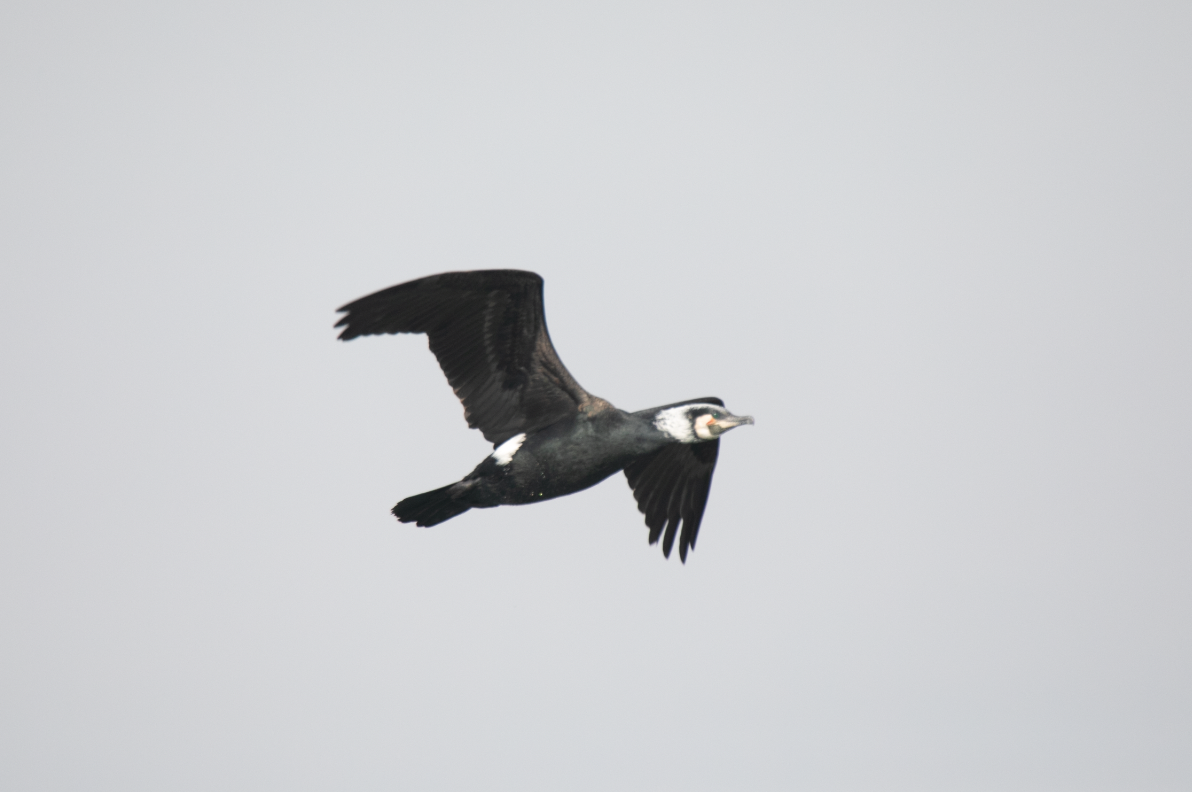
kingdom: Animalia
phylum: Chordata
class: Aves
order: Suliformes
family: Phalacrocoracidae
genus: Phalacrocorax
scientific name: Phalacrocorax carbo
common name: Great cormorant
